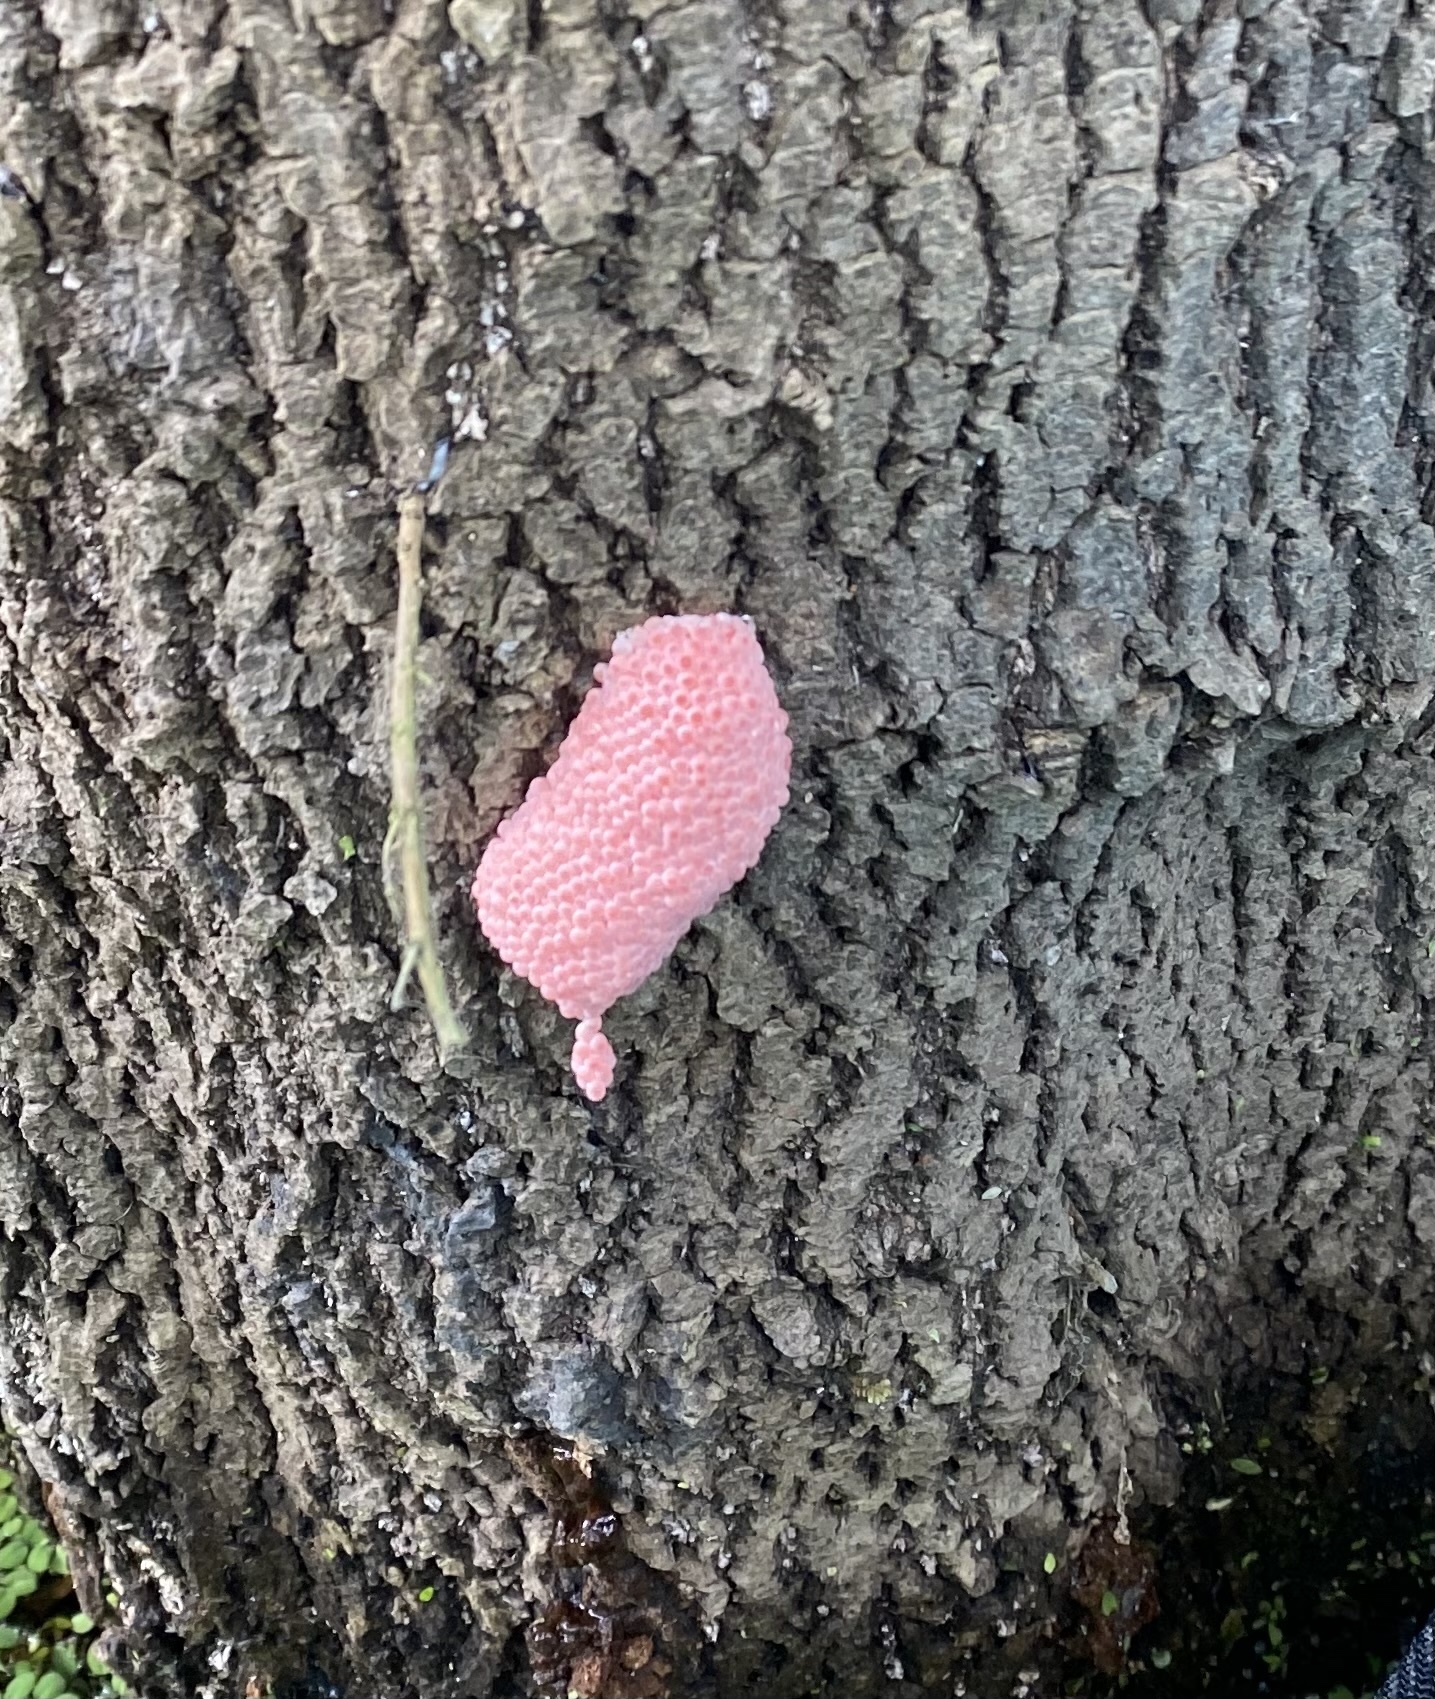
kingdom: Animalia
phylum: Mollusca
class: Gastropoda
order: Architaenioglossa
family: Ampullariidae
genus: Pomacea
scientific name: Pomacea maculata
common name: Giant applesnail
